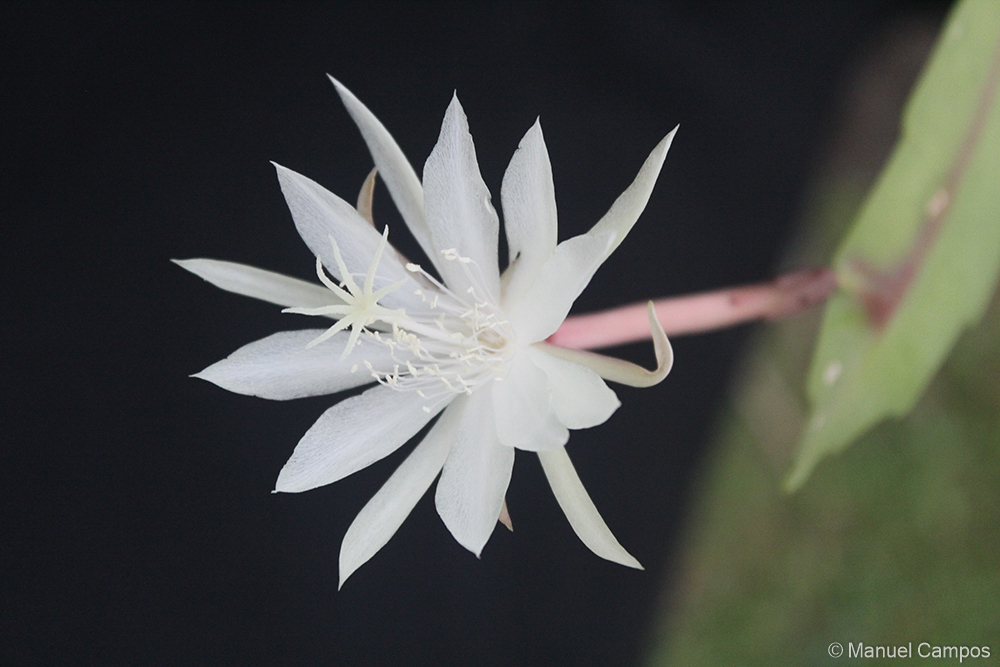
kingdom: Plantae
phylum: Tracheophyta
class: Magnoliopsida
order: Caryophyllales
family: Cactaceae
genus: Epiphyllum
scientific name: Epiphyllum pumilum
